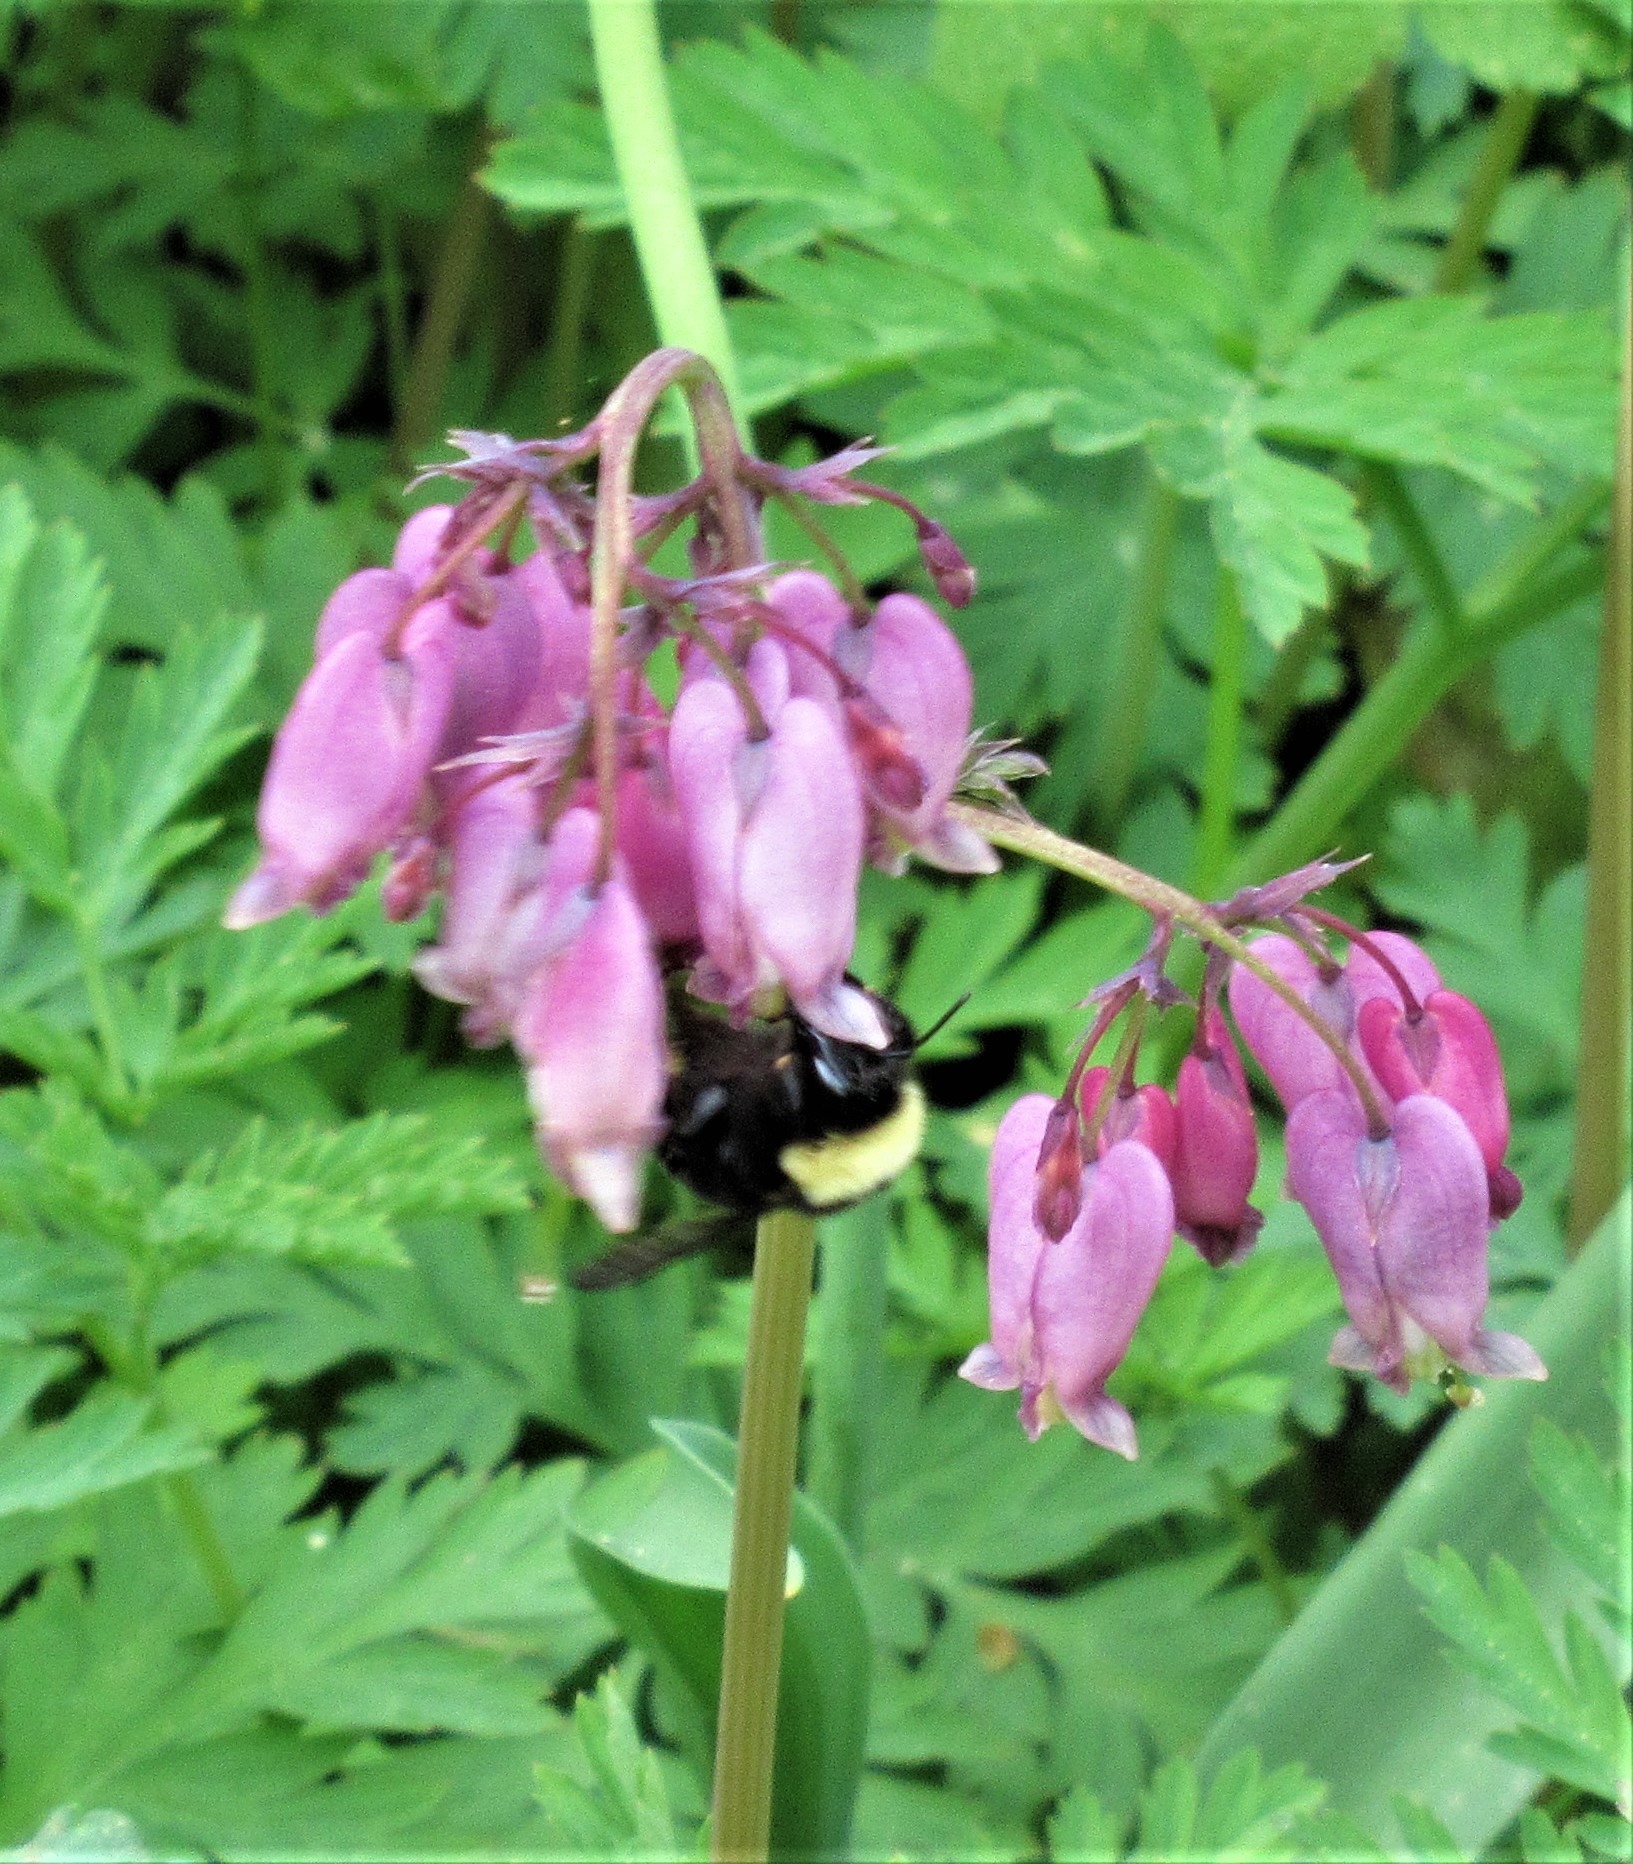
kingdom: Animalia
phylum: Arthropoda
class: Insecta
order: Hymenoptera
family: Apidae
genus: Bombus
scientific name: Bombus californicus
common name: California bumble bee
